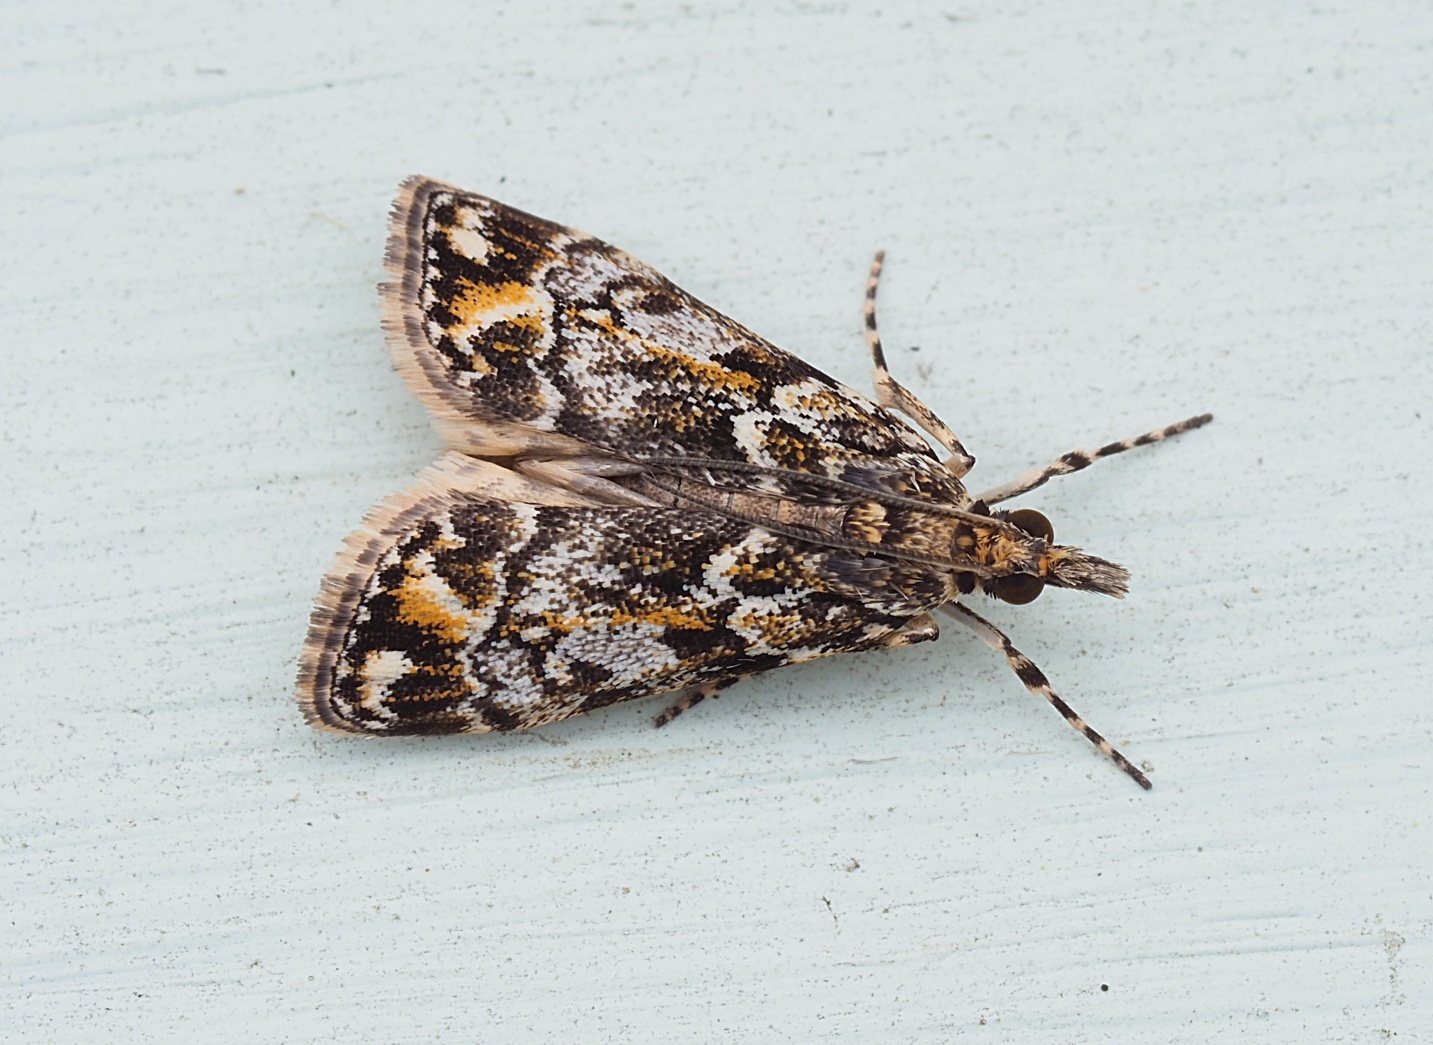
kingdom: Animalia
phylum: Arthropoda
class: Insecta
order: Lepidoptera
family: Crambidae
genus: Eudonia
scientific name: Eudonia minualis
